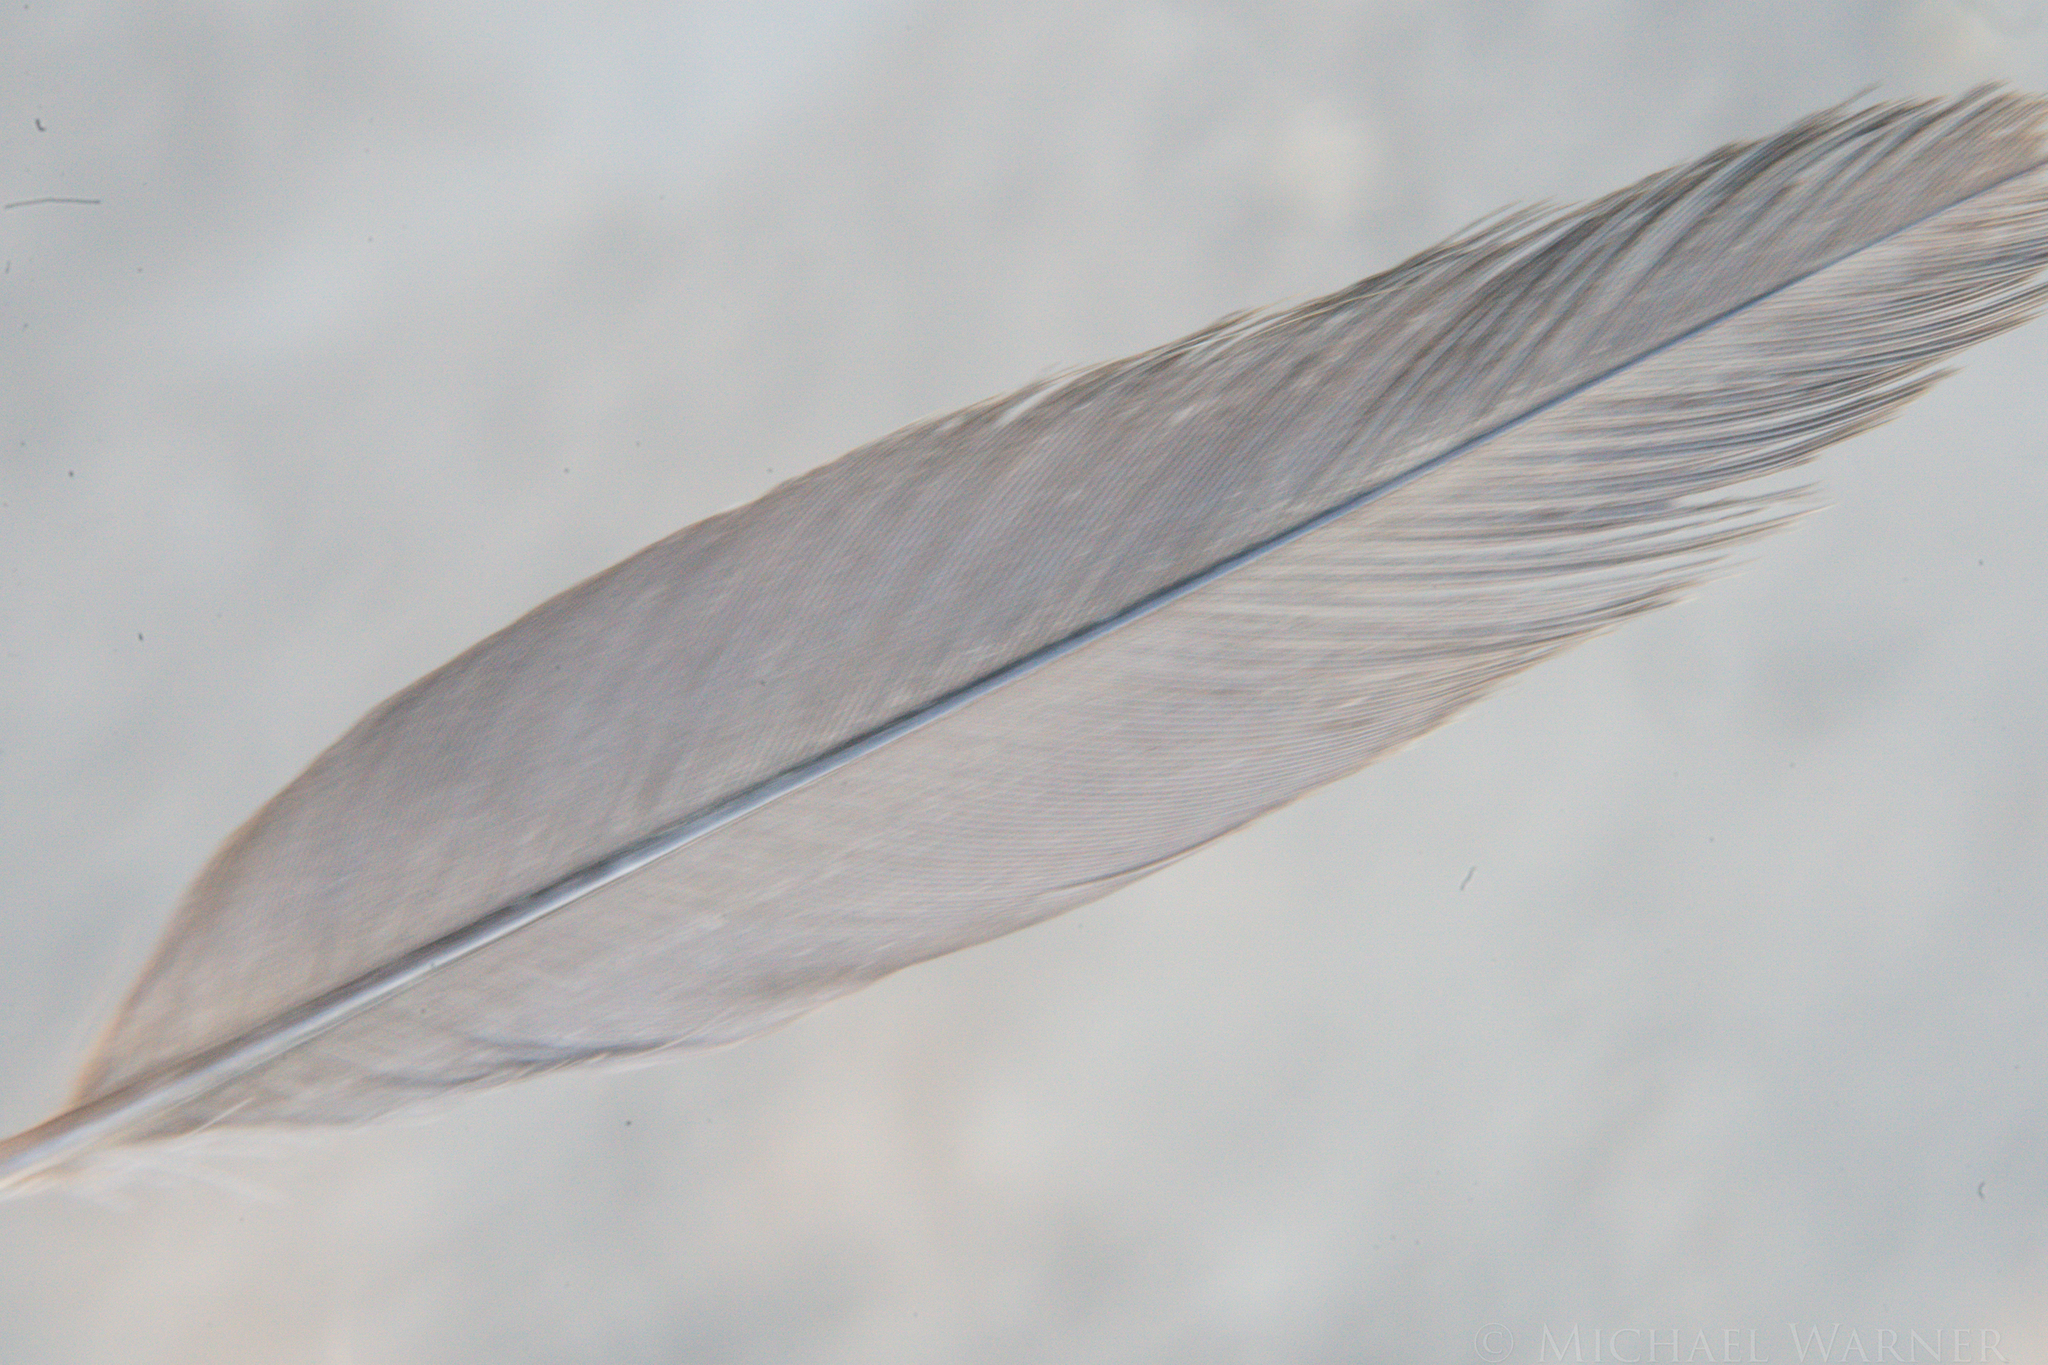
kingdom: Animalia
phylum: Chordata
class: Aves
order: Galliformes
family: Odontophoridae
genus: Callipepla
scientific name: Callipepla californica
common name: California quail
